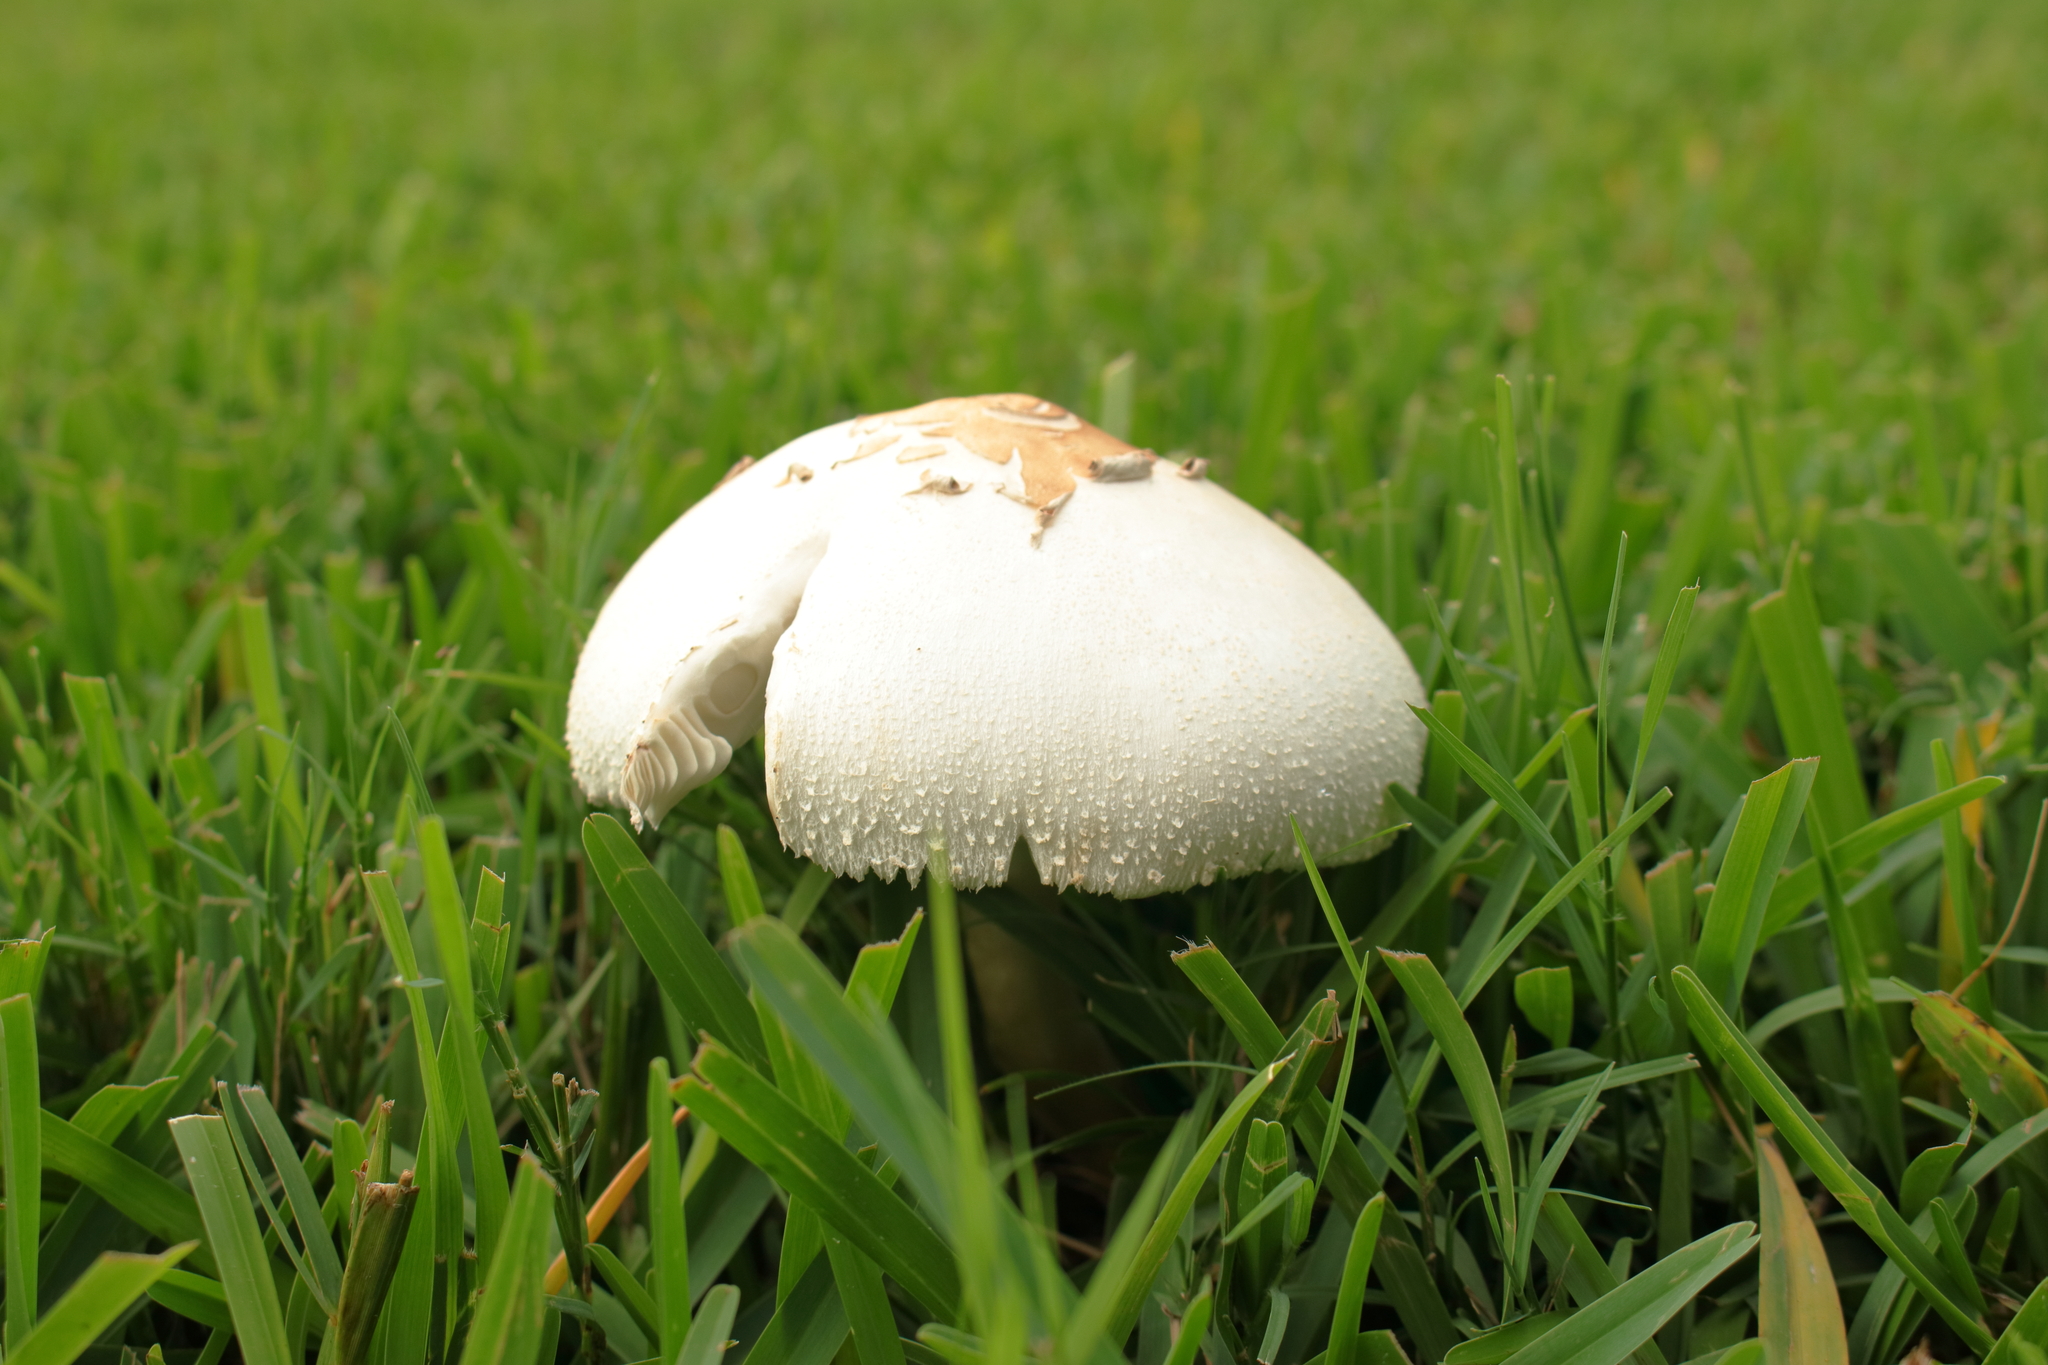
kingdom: Fungi
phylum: Basidiomycota
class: Agaricomycetes
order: Agaricales
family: Agaricaceae
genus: Chlorophyllum
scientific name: Chlorophyllum molybdites
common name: False parasol
